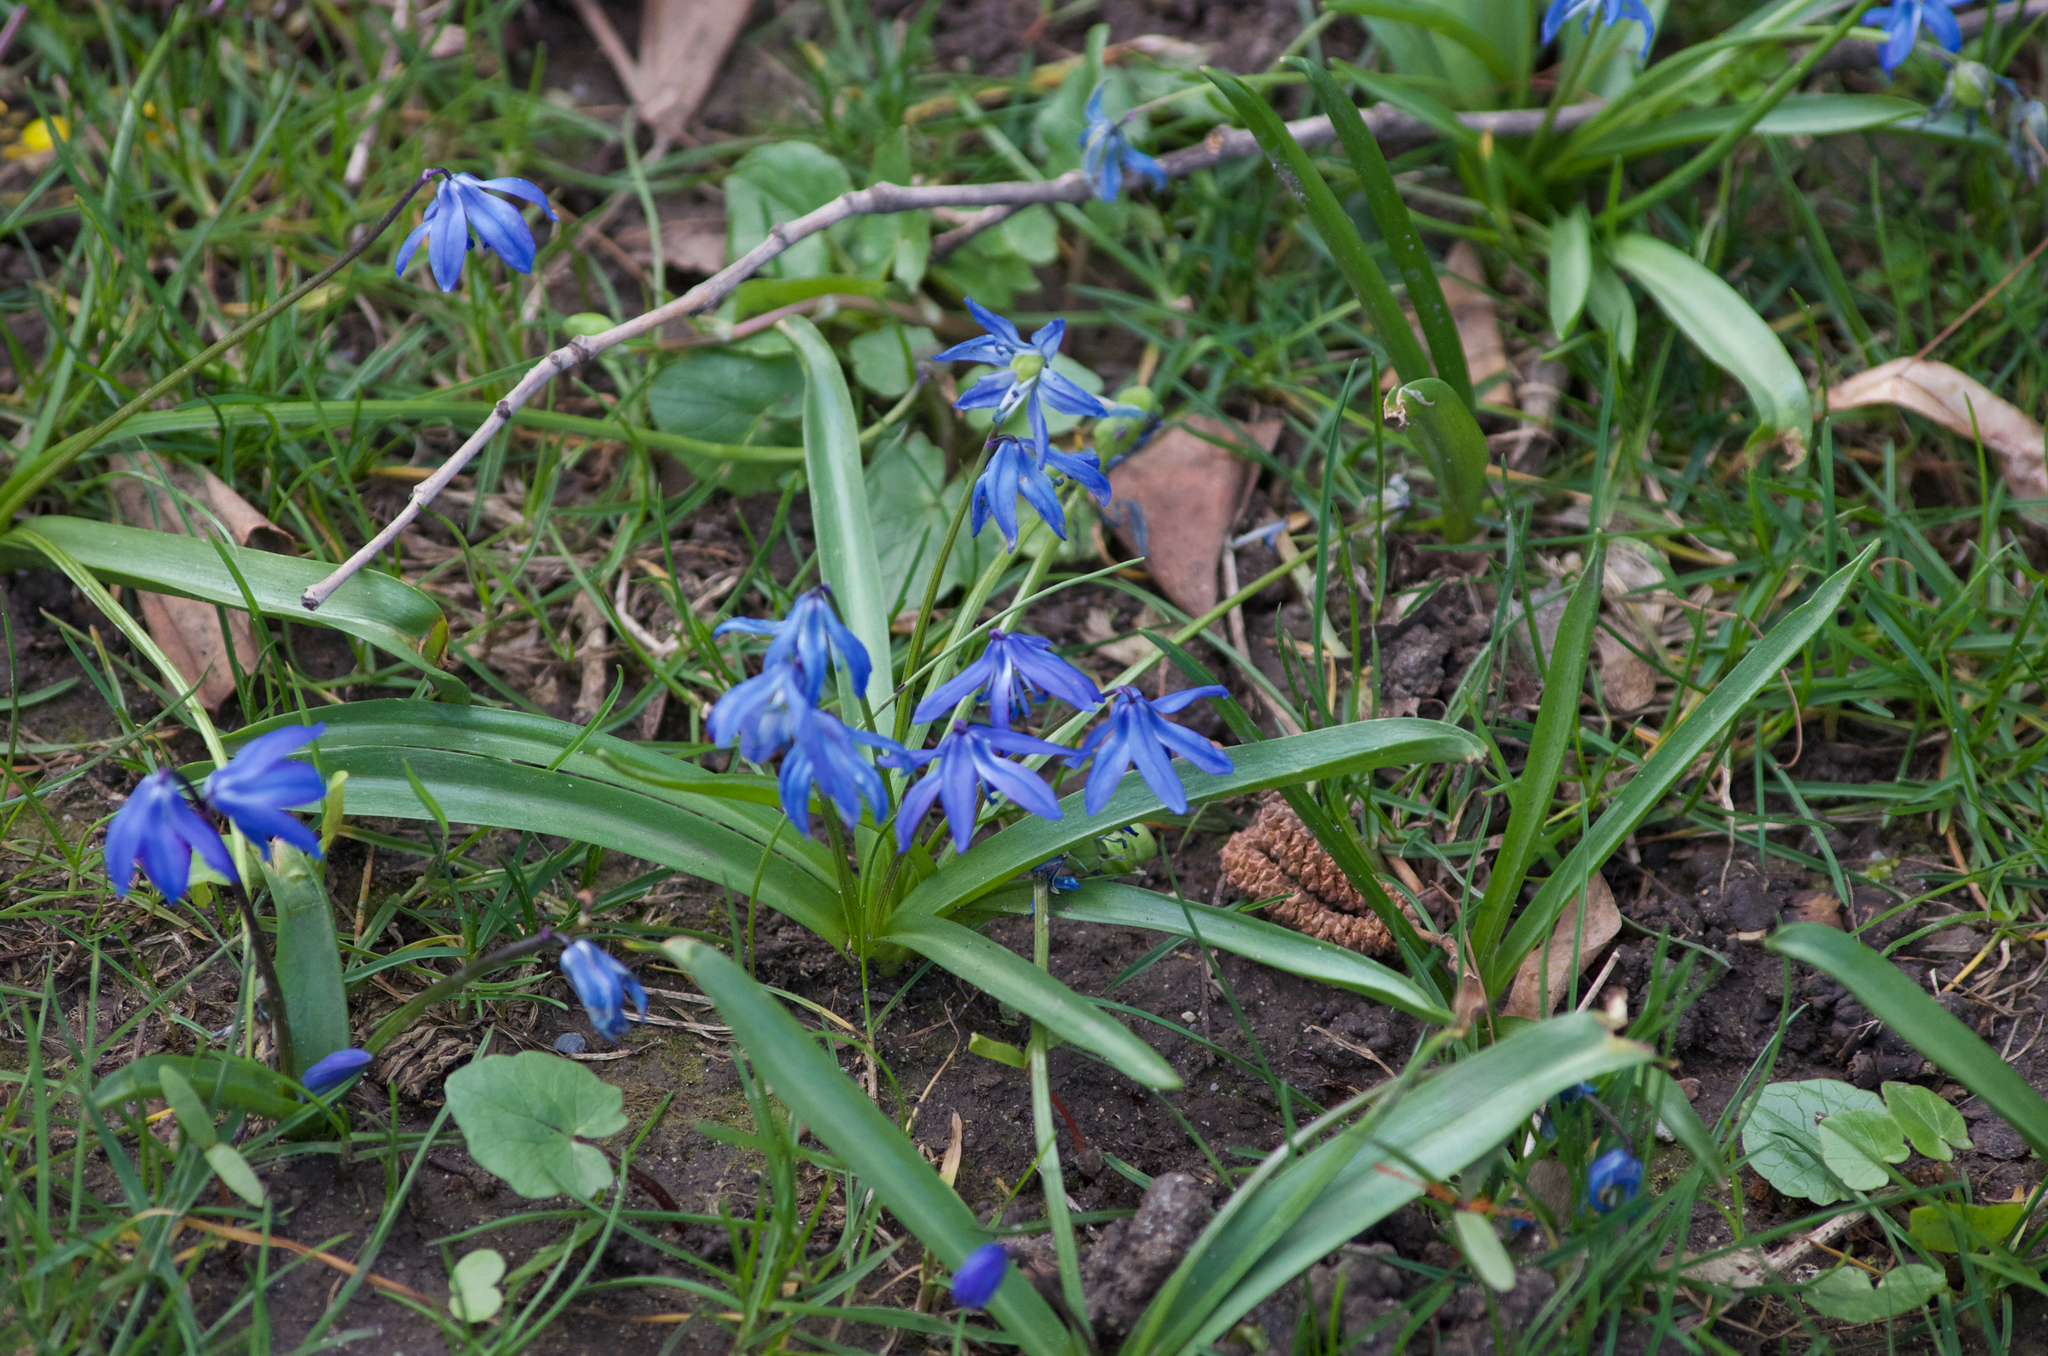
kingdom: Plantae
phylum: Tracheophyta
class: Liliopsida
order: Asparagales
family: Asparagaceae
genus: Scilla
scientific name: Scilla siberica
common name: Siberian squill
